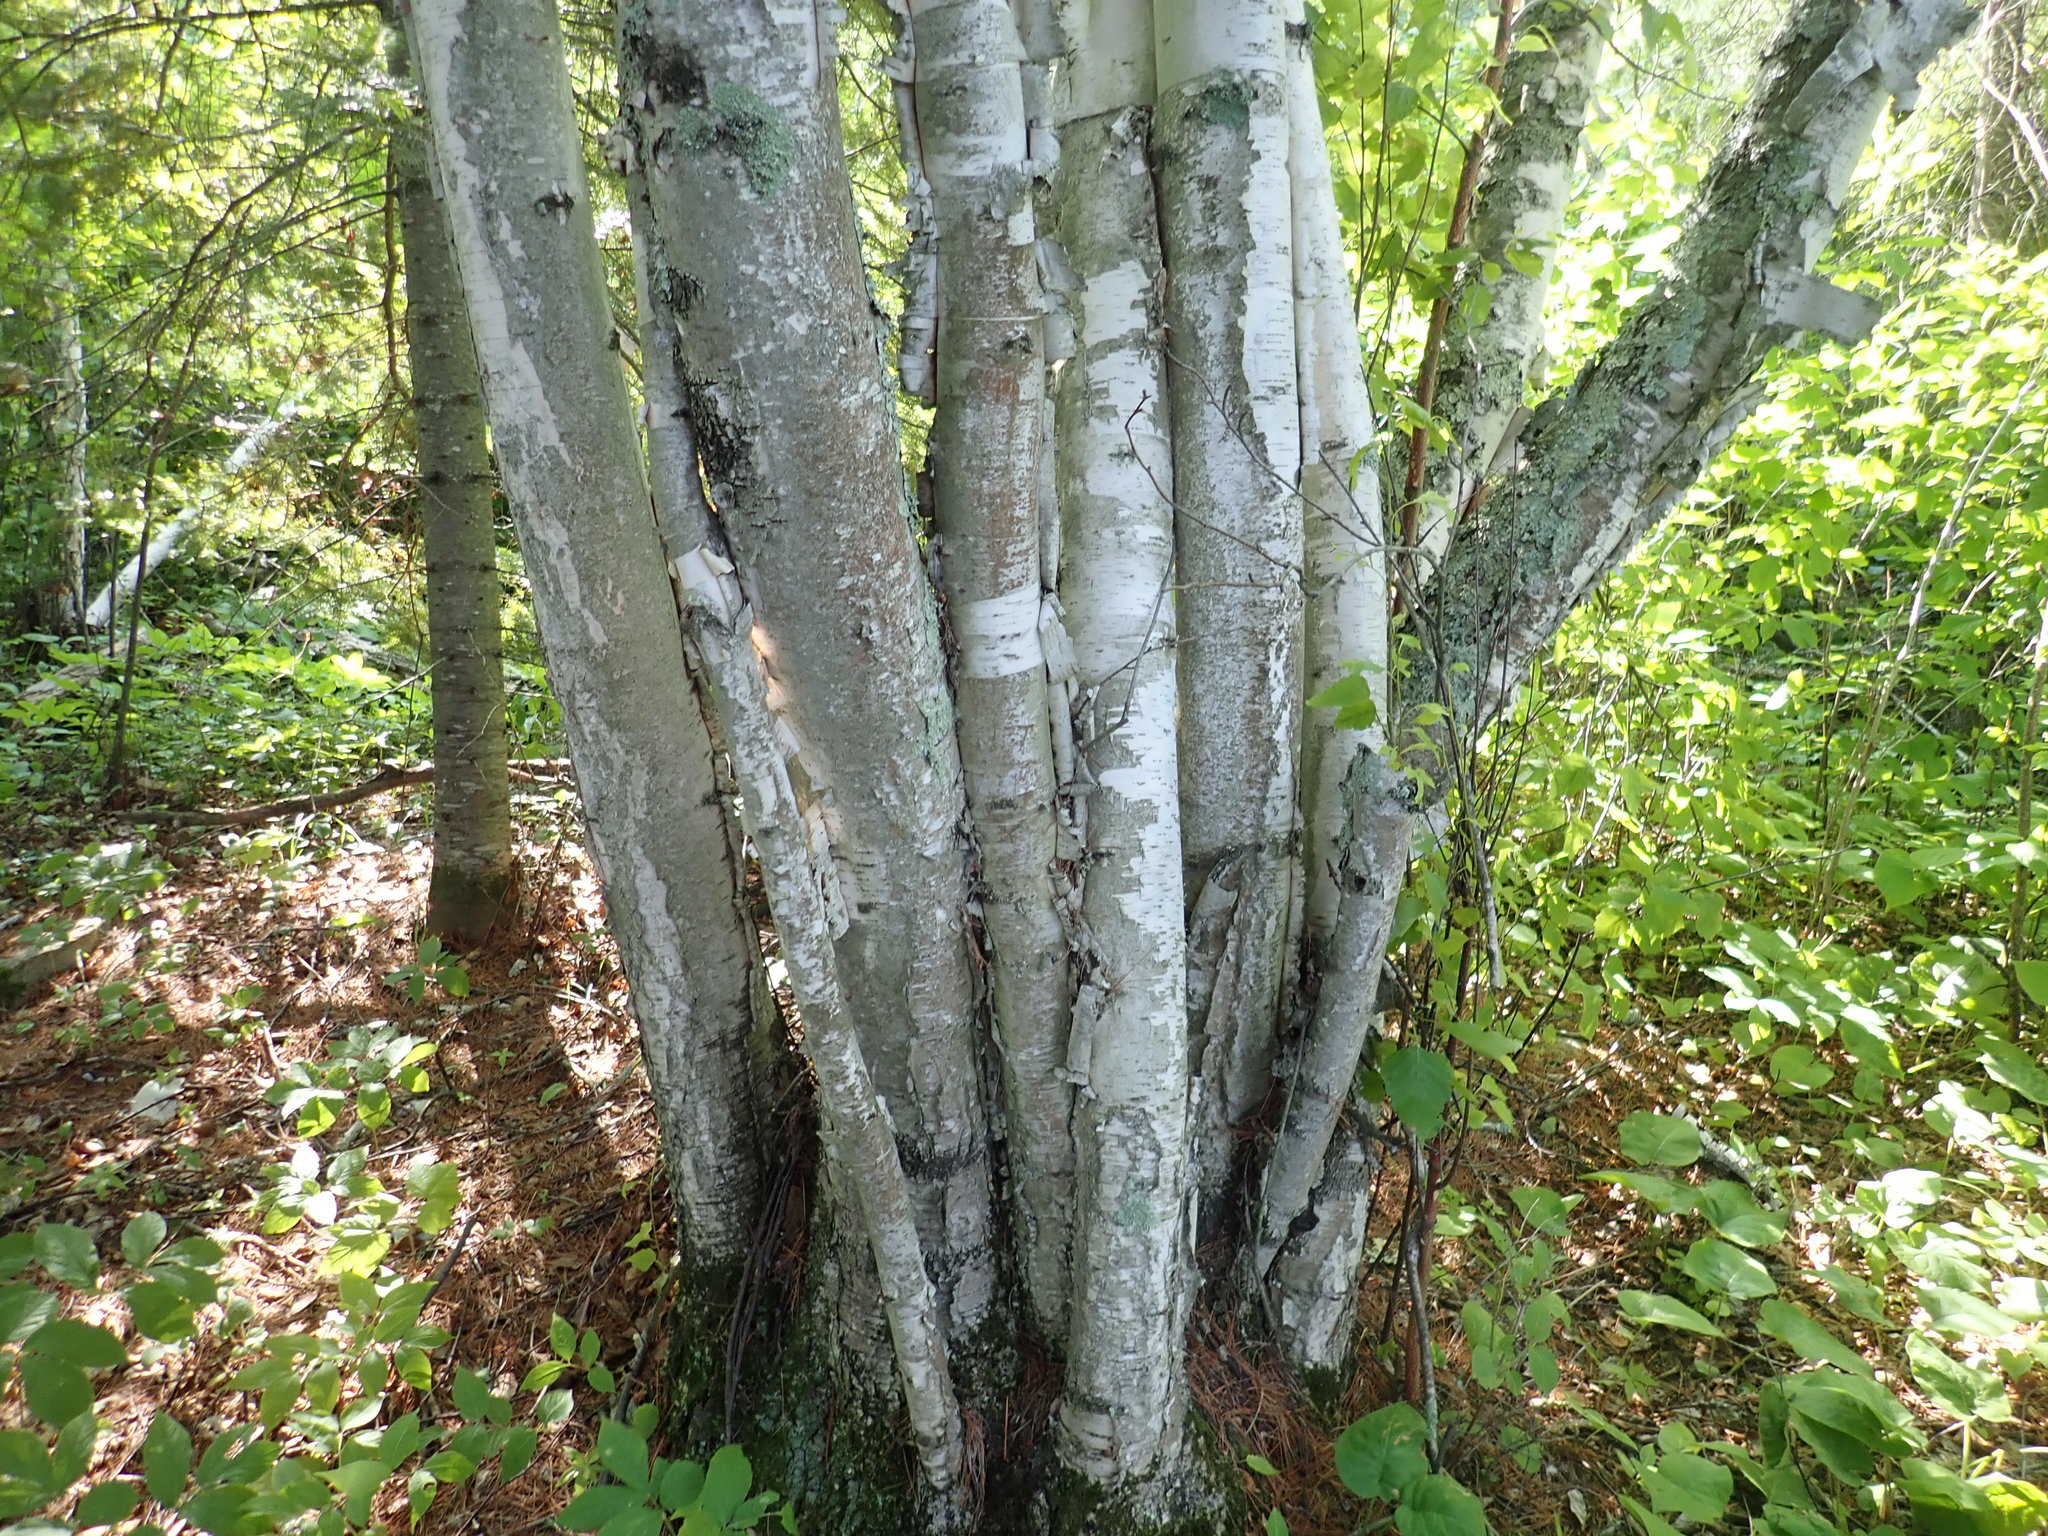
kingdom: Plantae
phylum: Tracheophyta
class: Magnoliopsida
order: Fagales
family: Betulaceae
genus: Betula
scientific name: Betula papyrifera
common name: Paper birch
